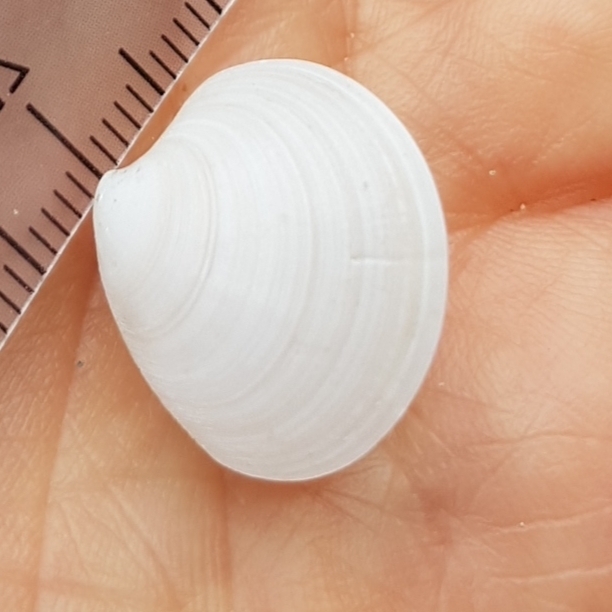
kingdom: Animalia
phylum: Mollusca
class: Bivalvia
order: Venerida
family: Veneridae
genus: Dosinia
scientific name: Dosinia lupinus
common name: Smooth artemis
